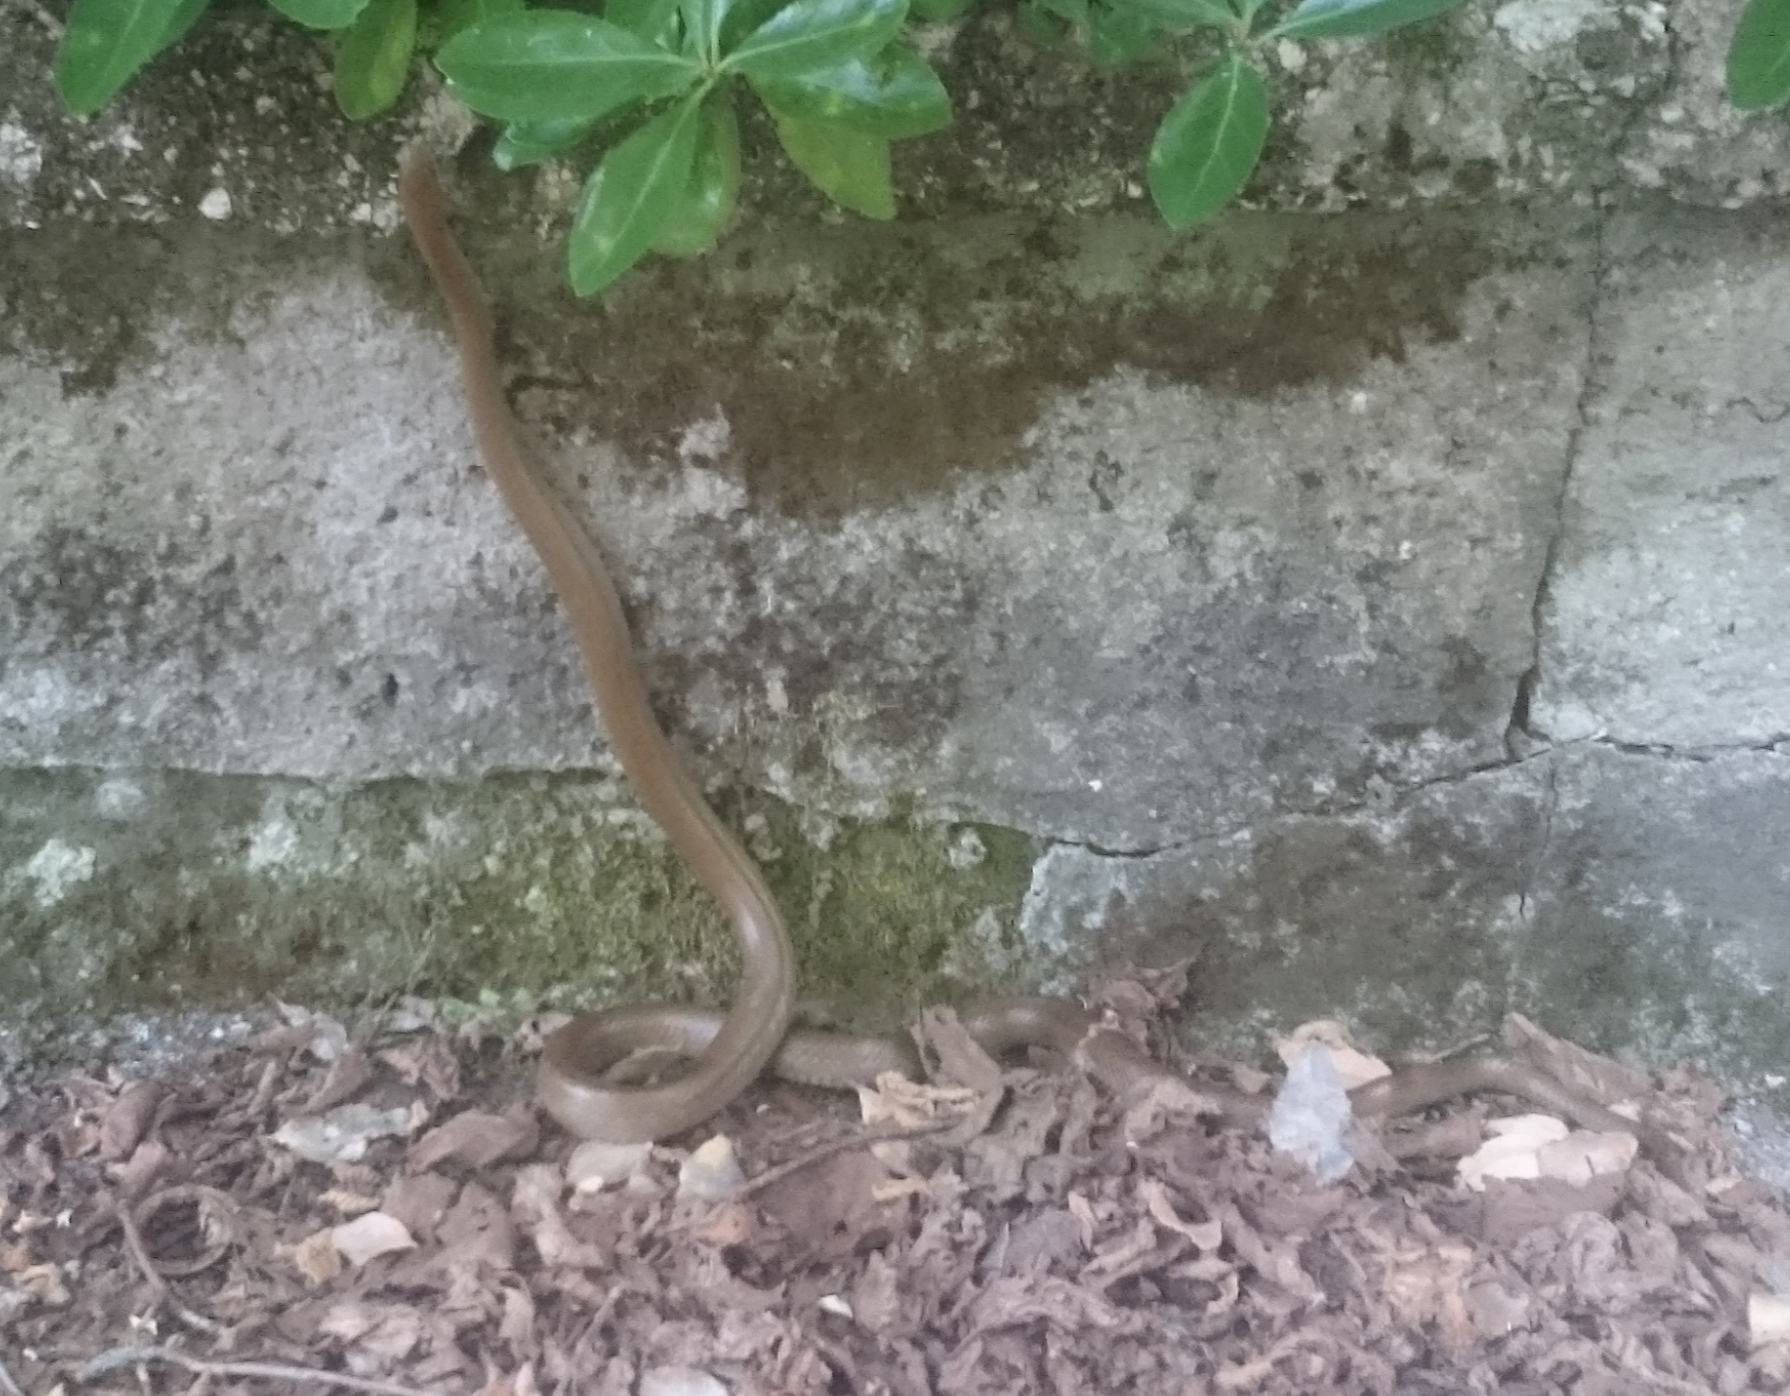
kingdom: Animalia
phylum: Chordata
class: Squamata
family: Colubridae
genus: Zamenis
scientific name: Zamenis lineatus
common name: Italian aesculapian snake
